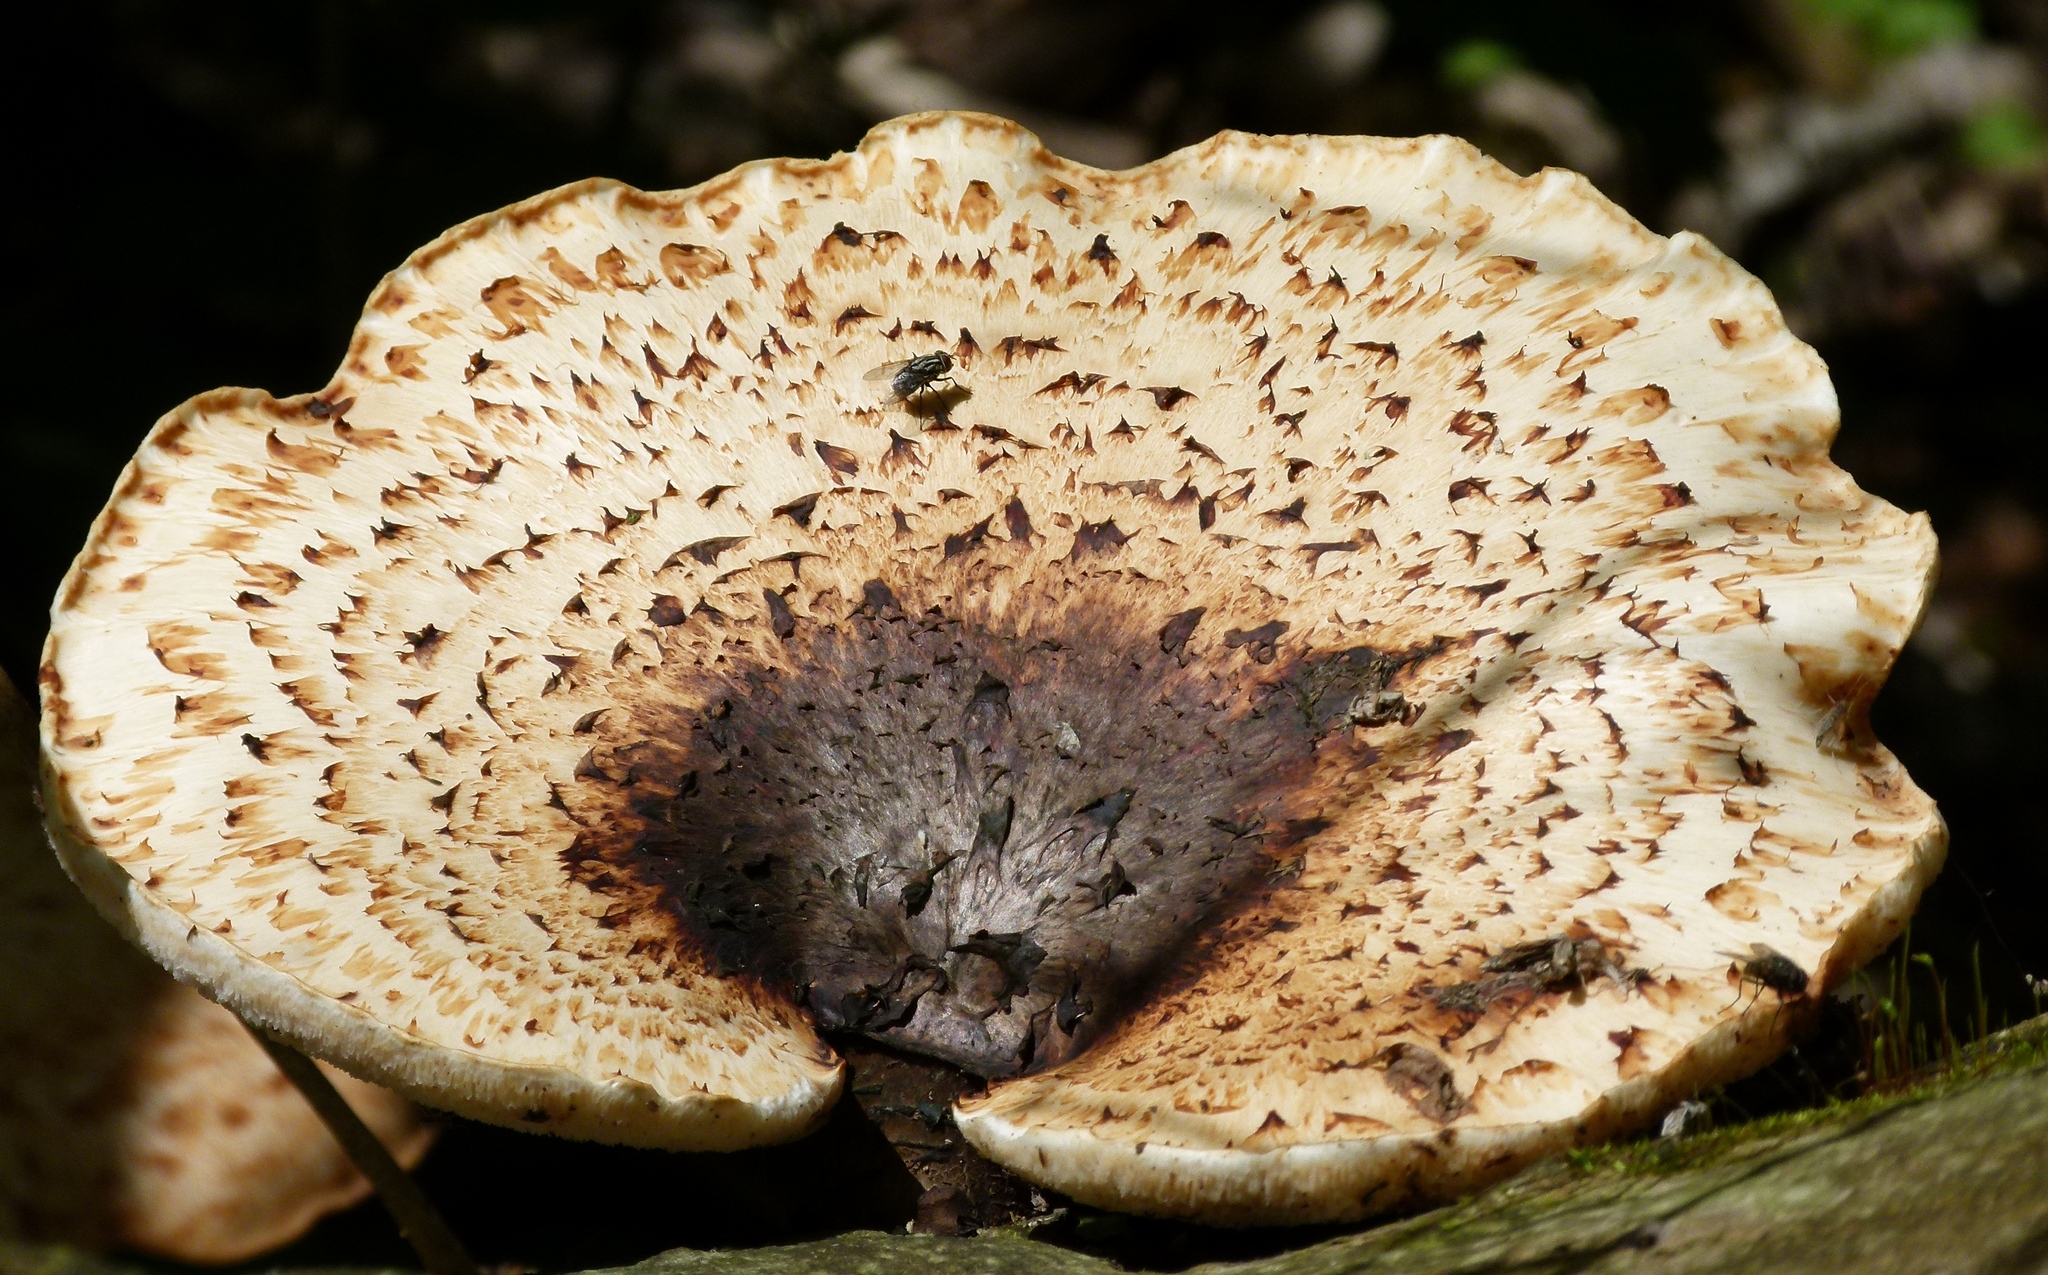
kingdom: Fungi
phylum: Basidiomycota
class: Agaricomycetes
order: Polyporales
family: Polyporaceae
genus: Cerioporus
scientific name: Cerioporus squamosus
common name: Dryad's saddle
